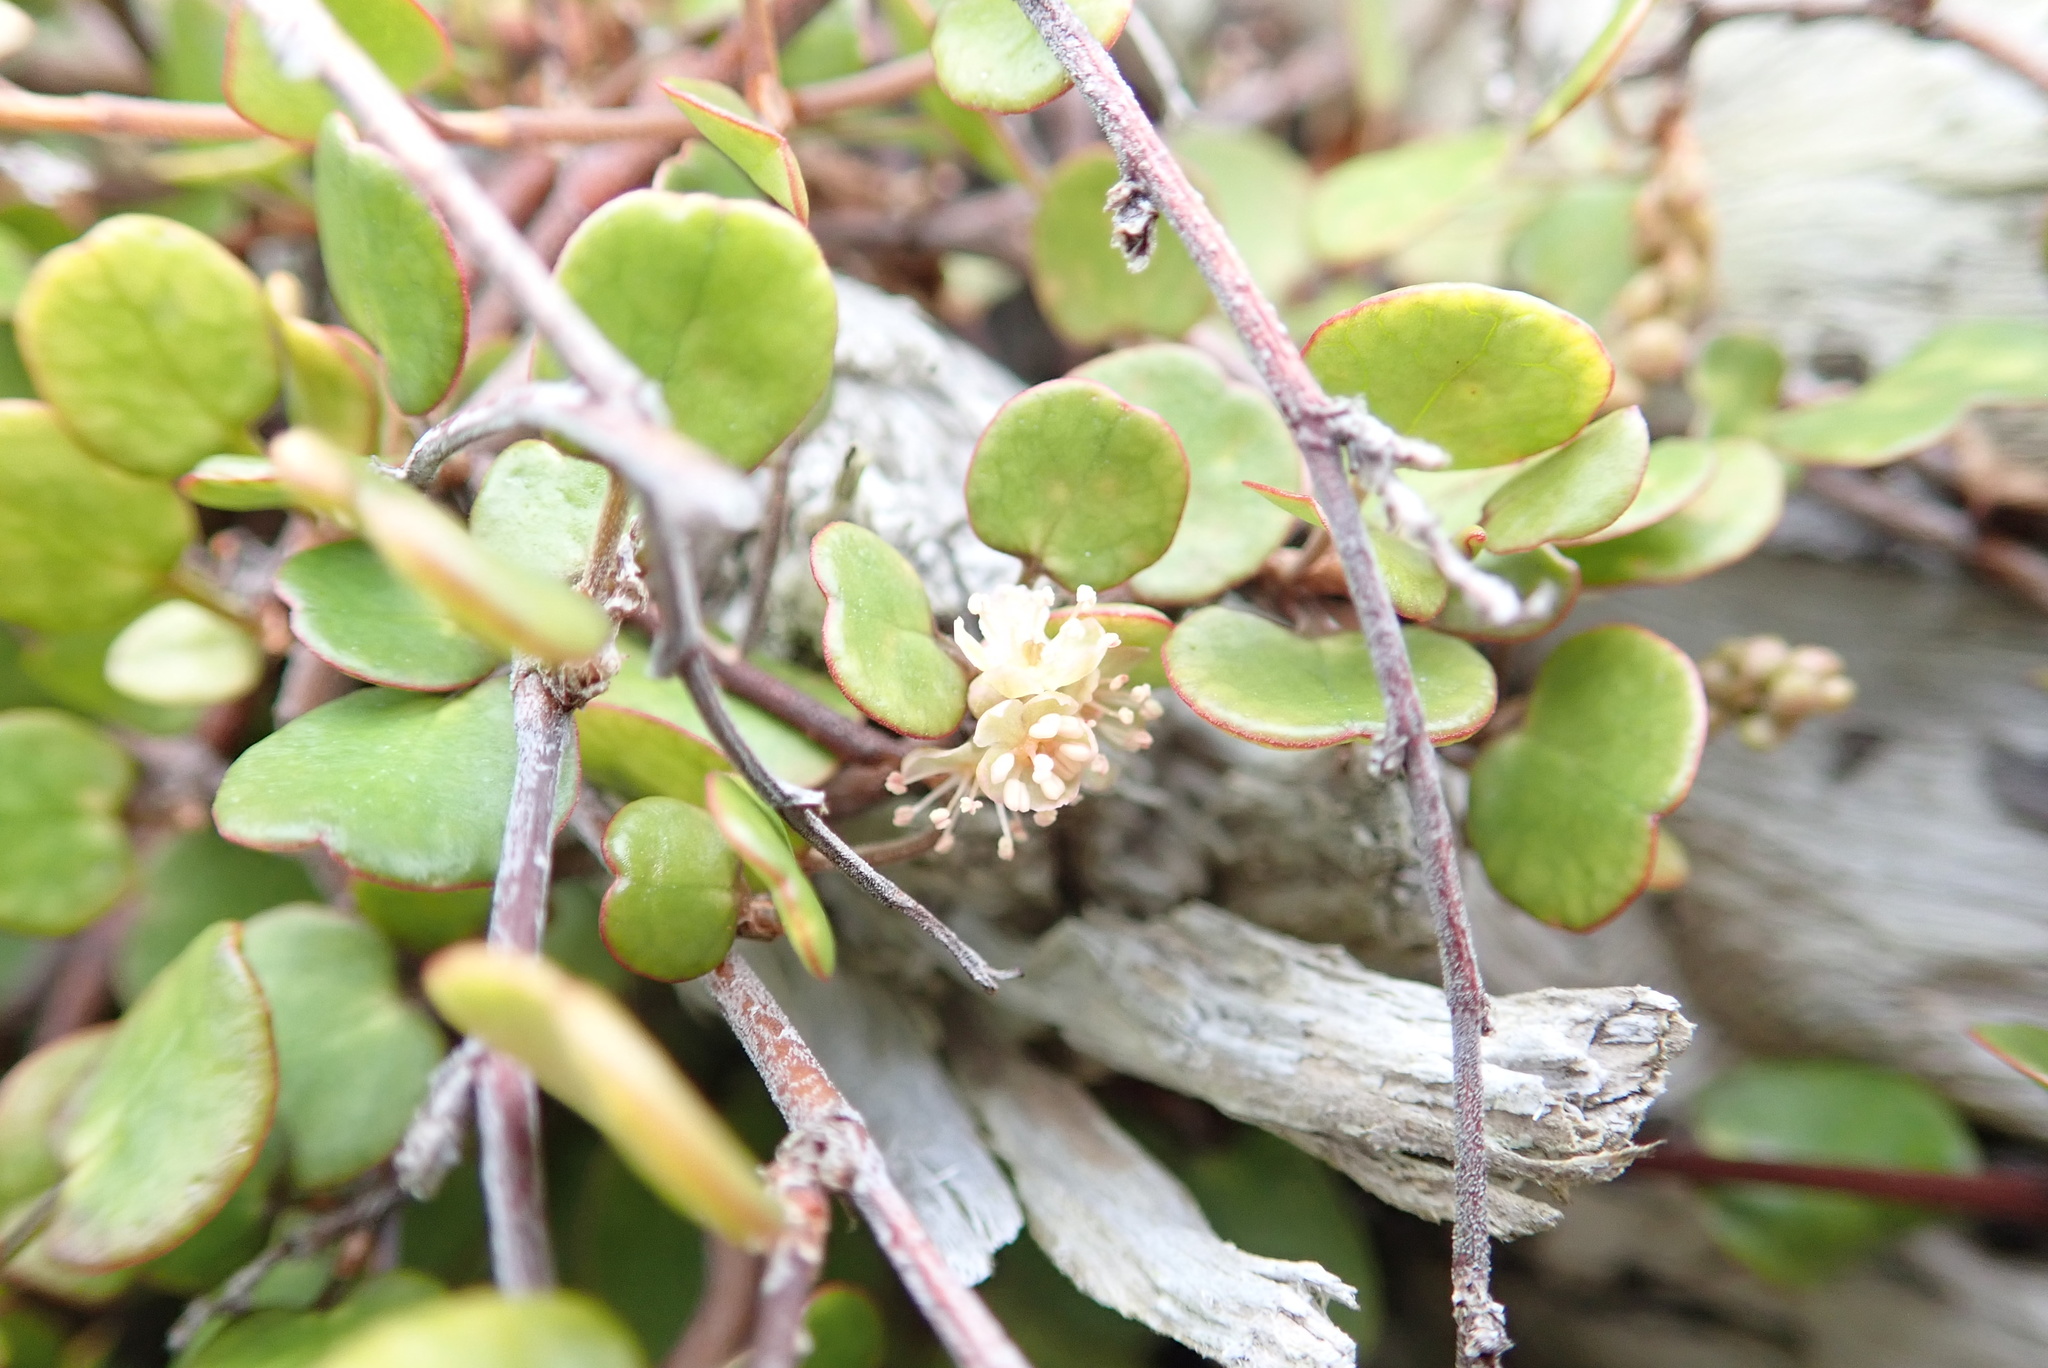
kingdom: Plantae
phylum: Tracheophyta
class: Magnoliopsida
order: Caryophyllales
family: Polygonaceae
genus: Muehlenbeckia
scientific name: Muehlenbeckia complexa
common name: Wireplant
